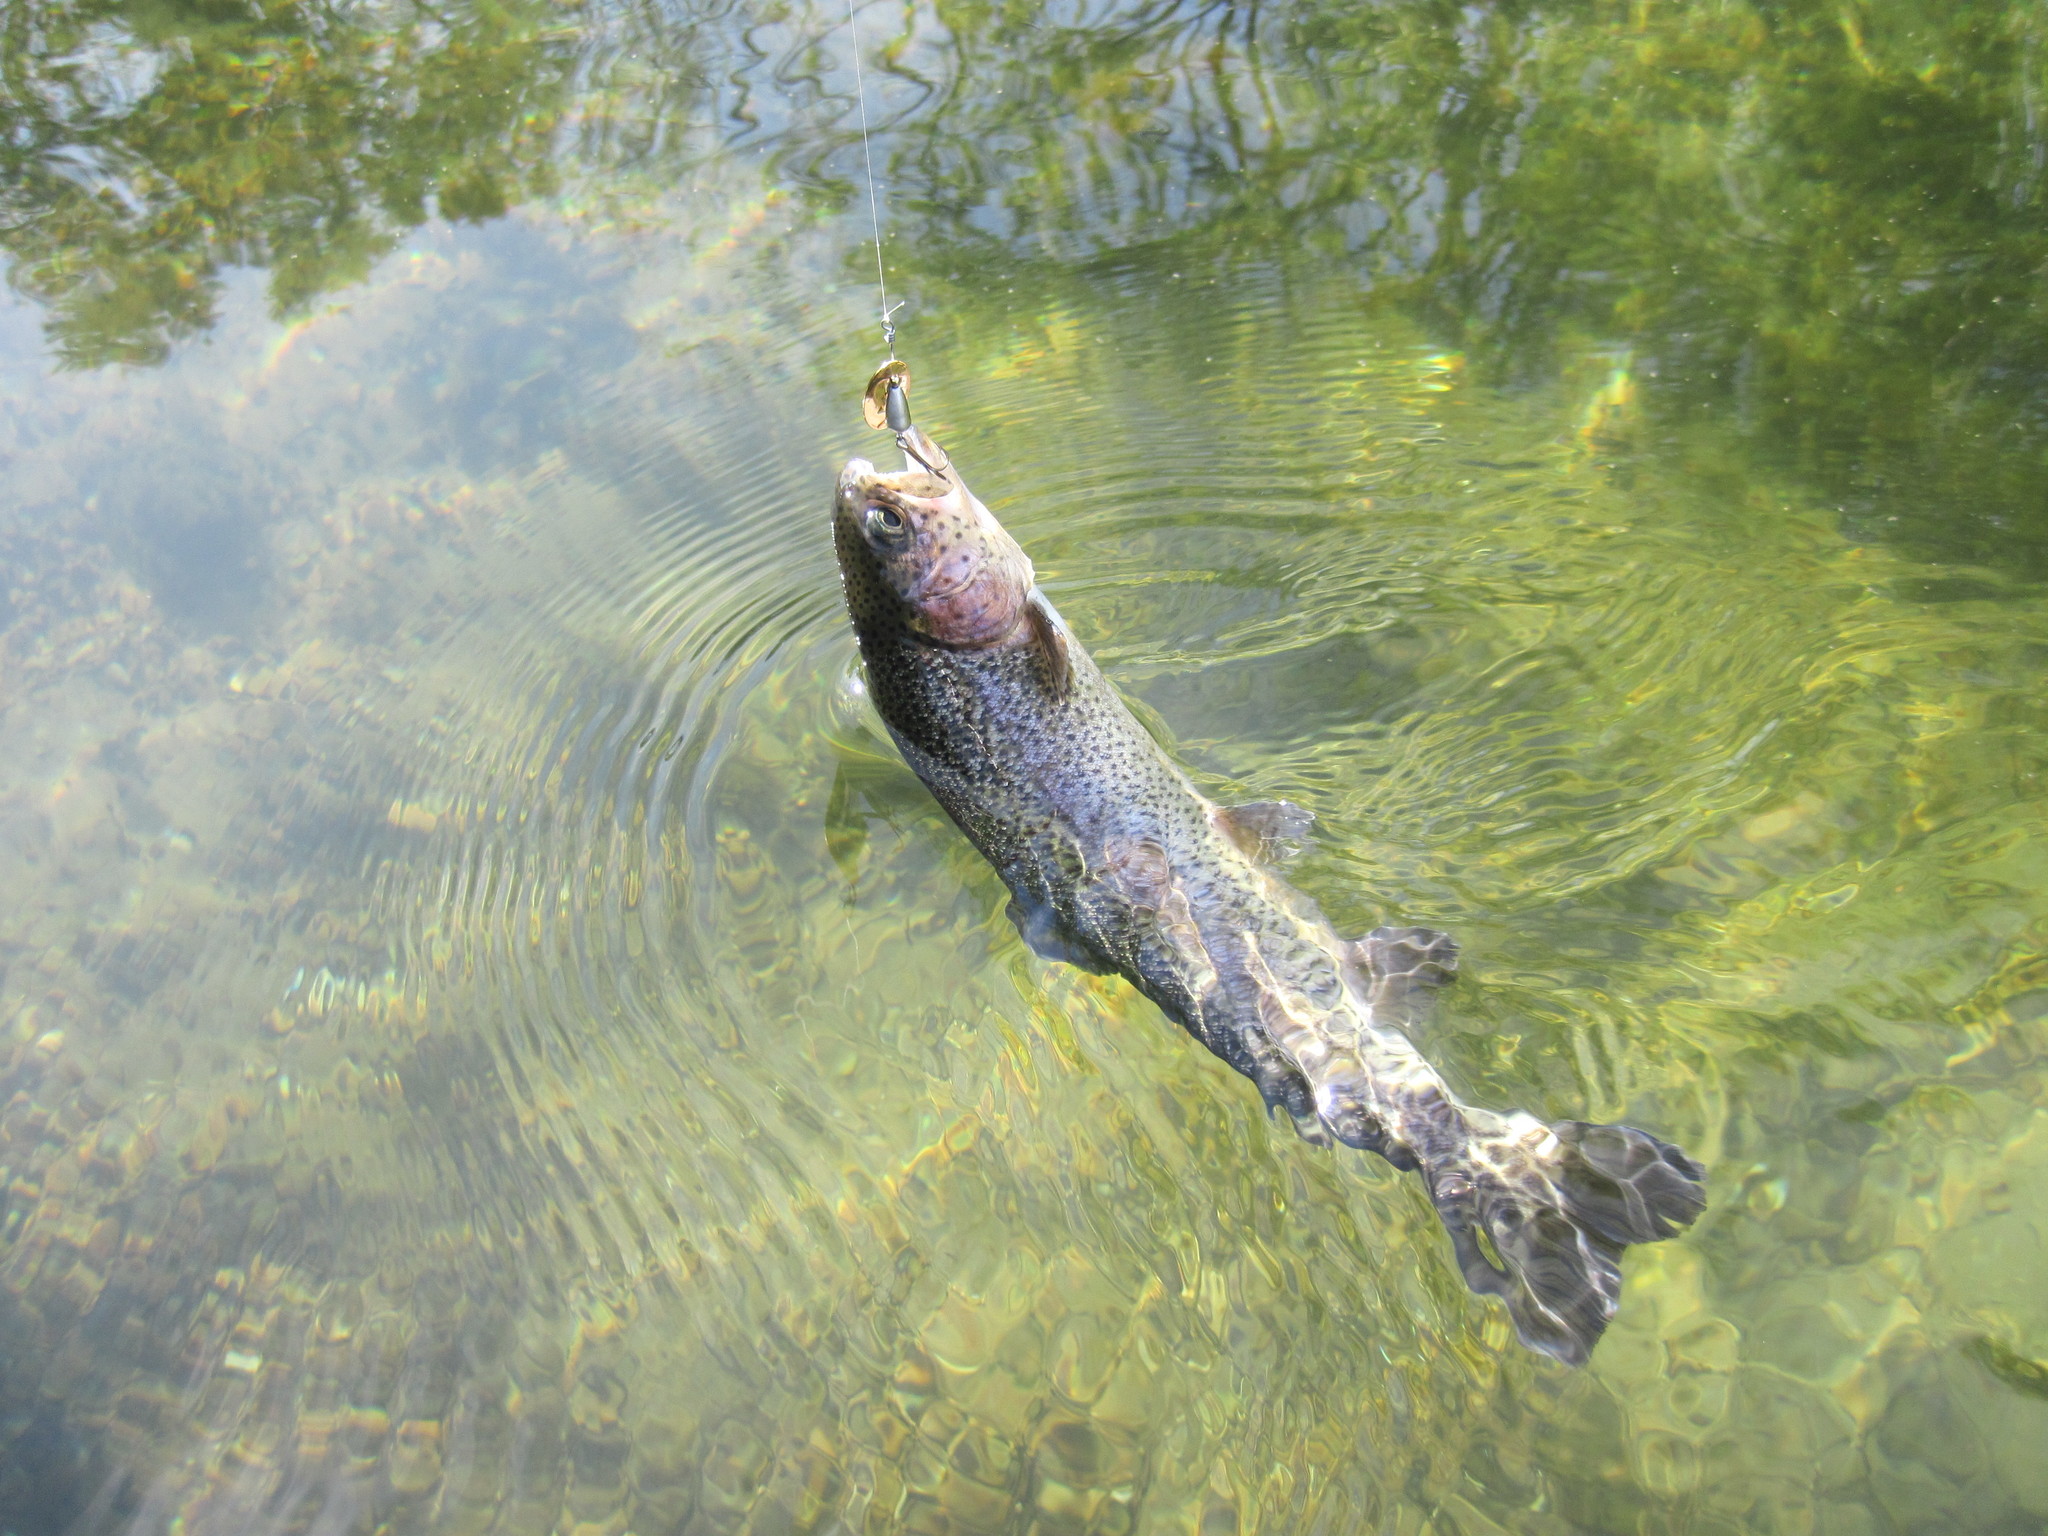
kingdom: Animalia
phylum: Chordata
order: Salmoniformes
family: Salmonidae
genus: Oncorhynchus
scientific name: Oncorhynchus mykiss
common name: Rainbow trout
